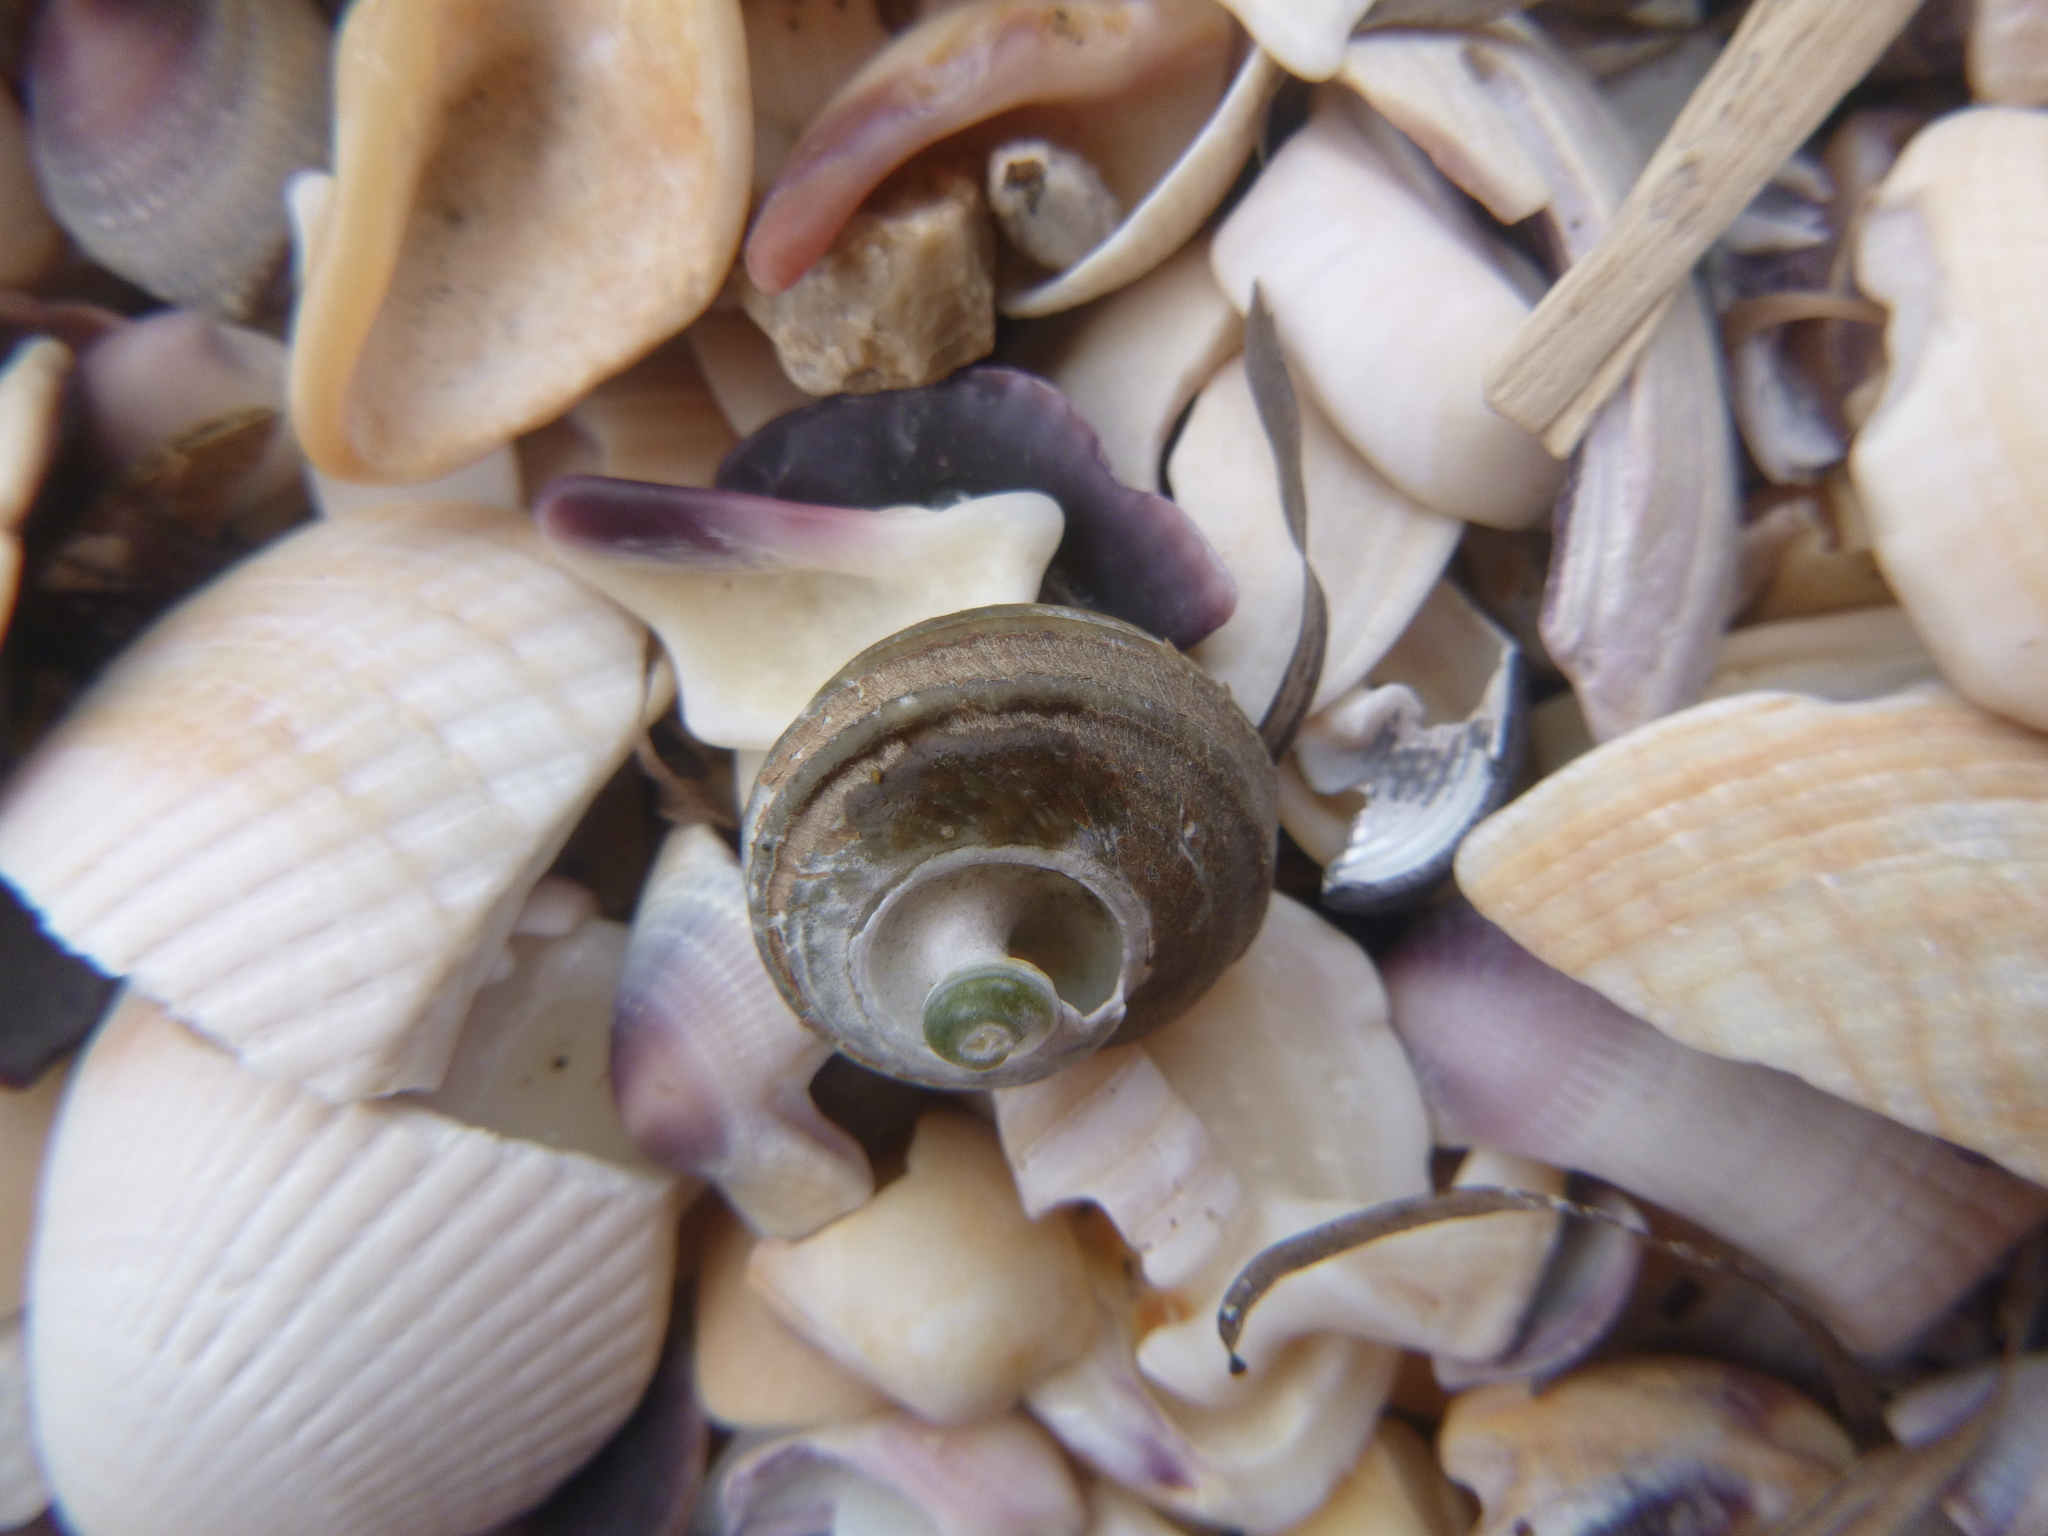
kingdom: Animalia
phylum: Mollusca
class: Gastropoda
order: Trochida
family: Turbinidae
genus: Lunella
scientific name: Lunella smaragda
